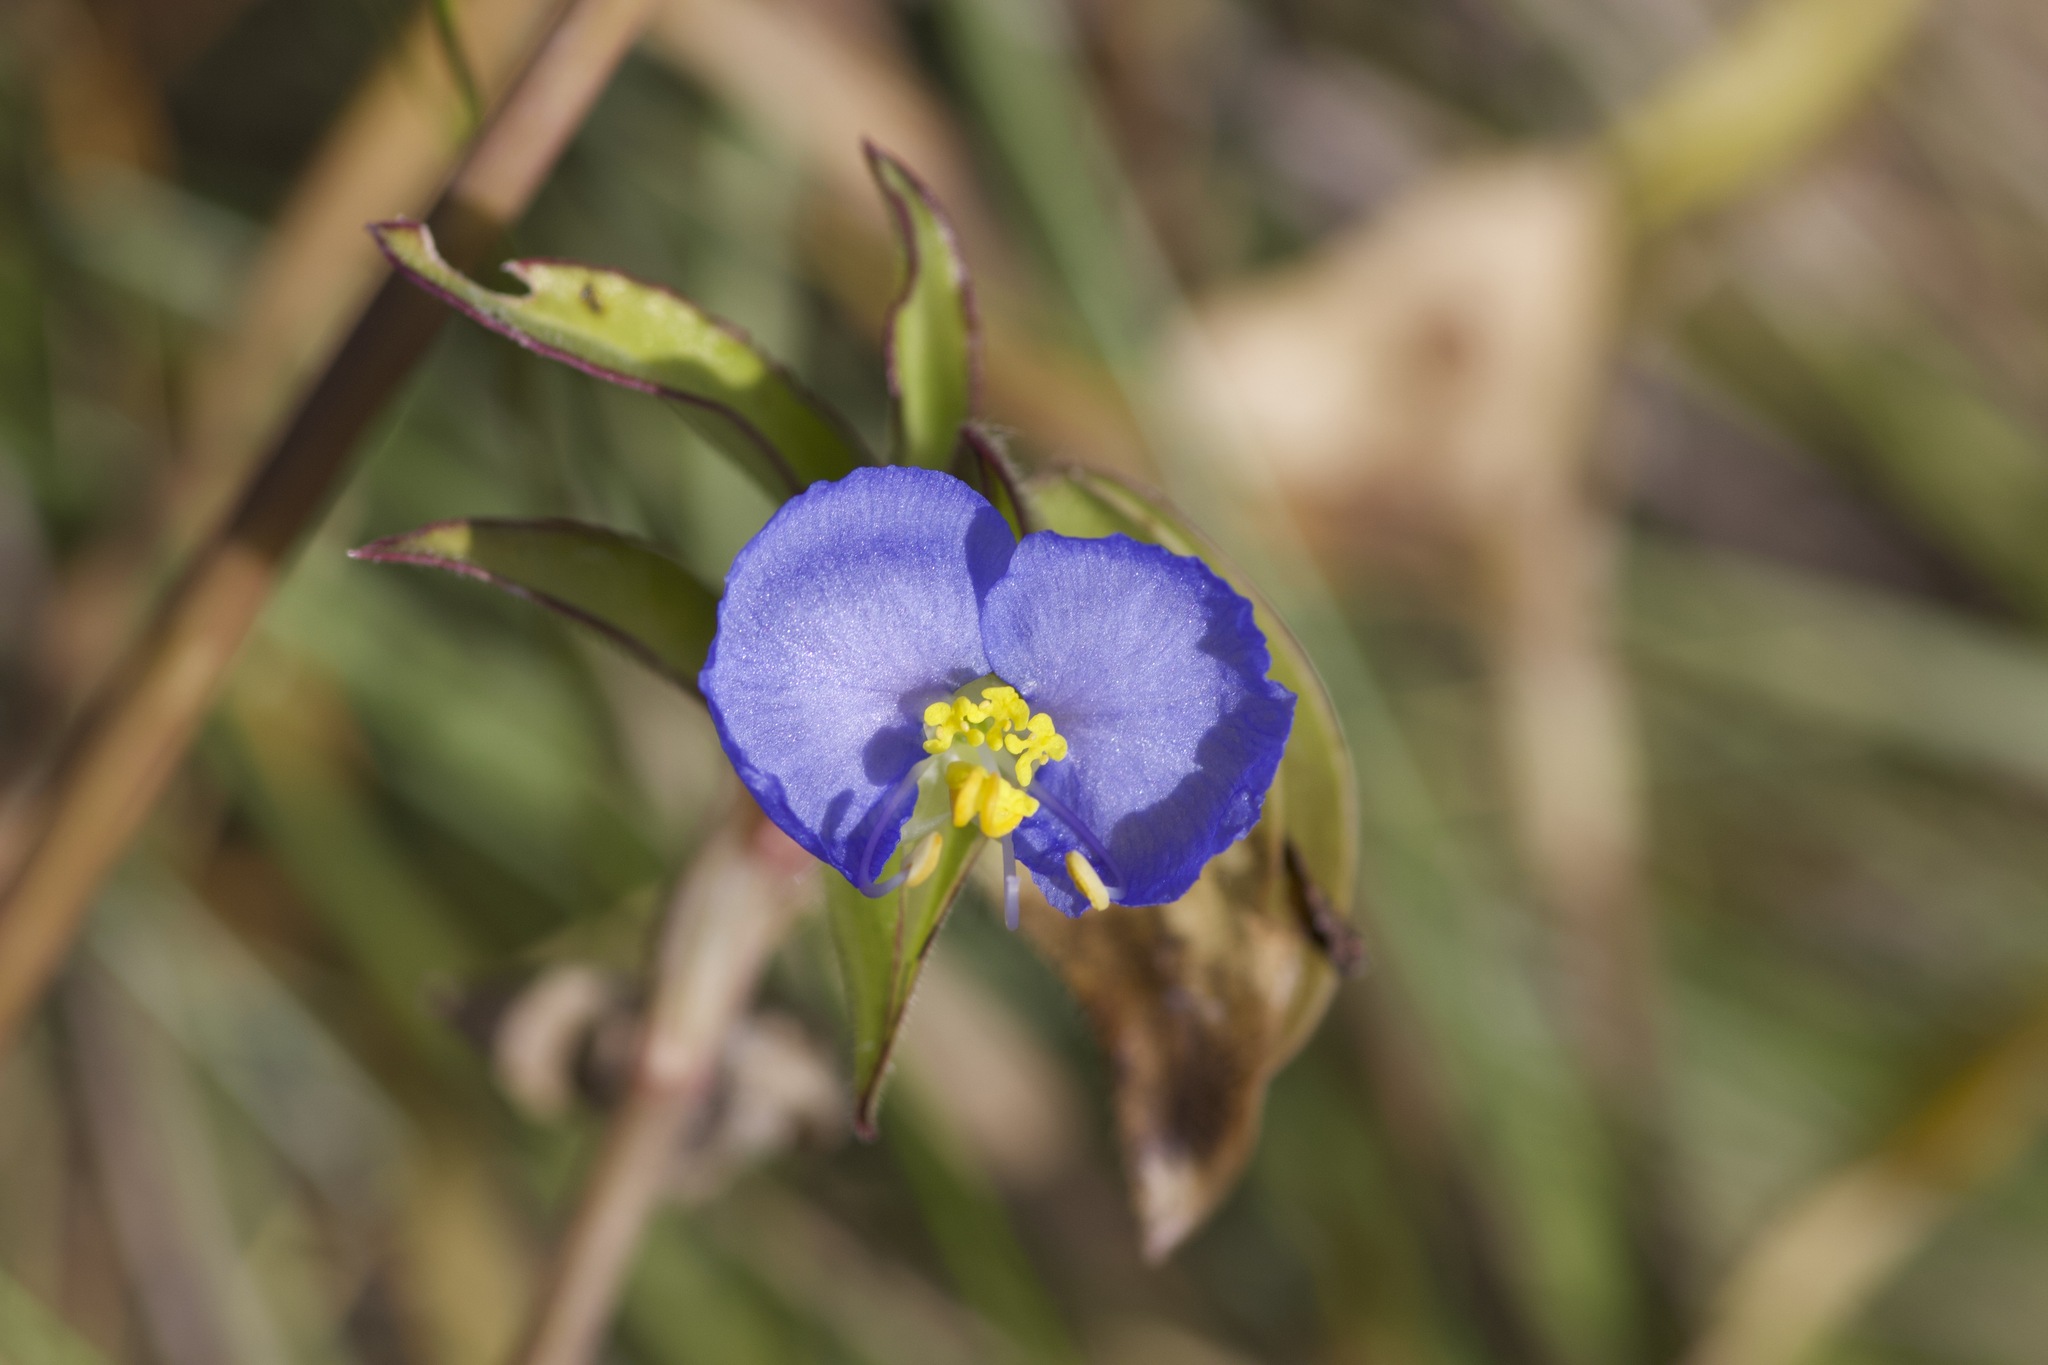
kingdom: Plantae
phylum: Tracheophyta
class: Liliopsida
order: Commelinales
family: Commelinaceae
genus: Commelina
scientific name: Commelina erecta
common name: Blousel blommetjie
